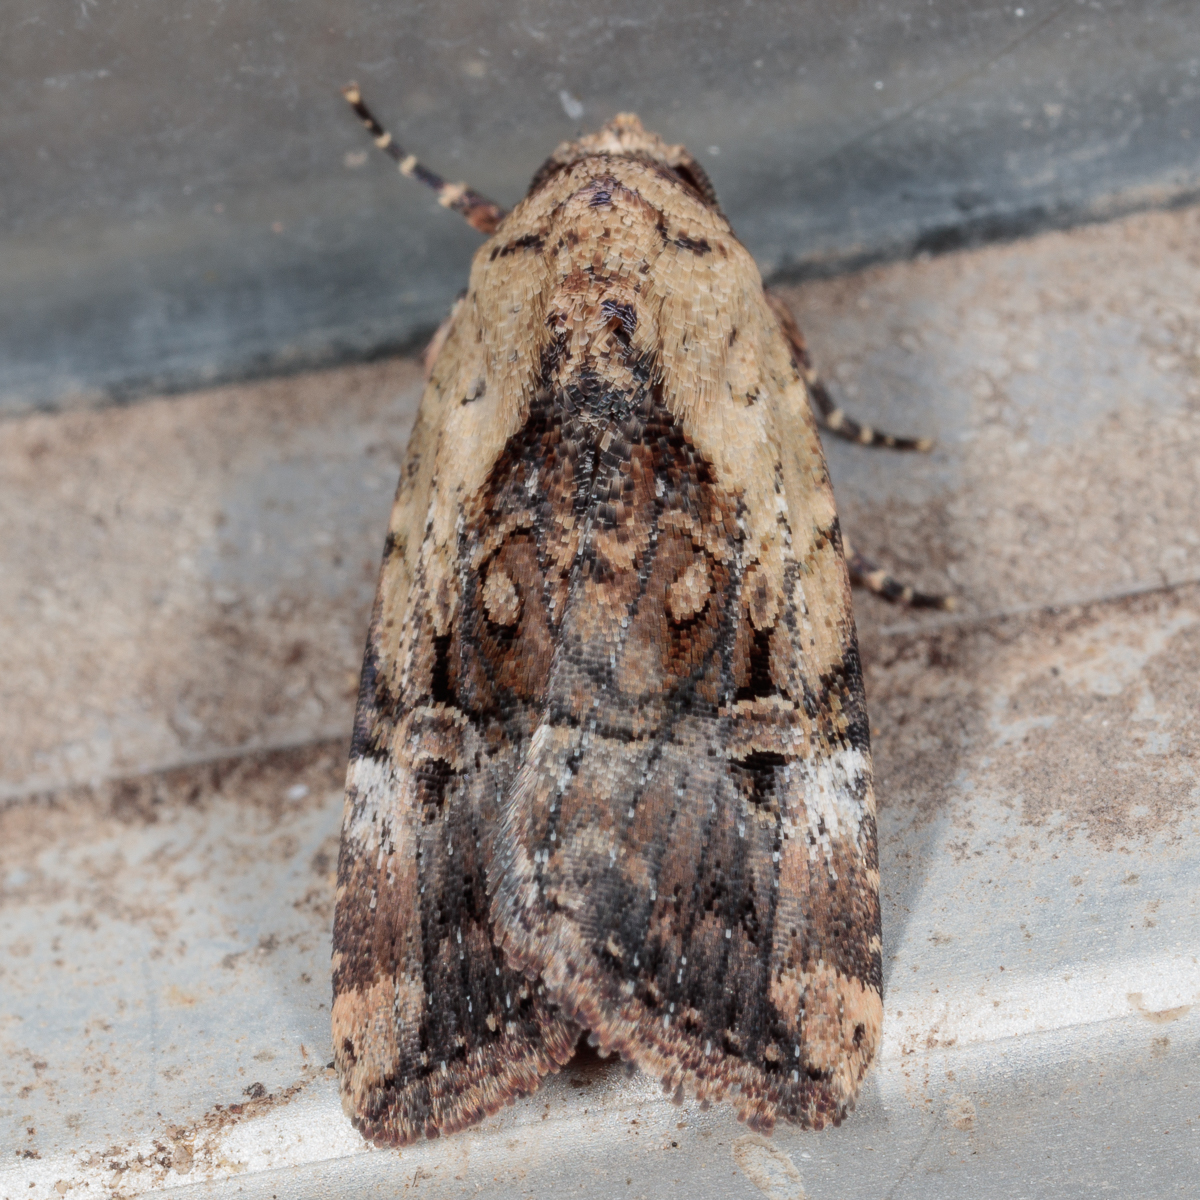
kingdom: Animalia
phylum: Arthropoda
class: Insecta
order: Lepidoptera
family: Noctuidae
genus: Elaphria
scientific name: Elaphria chalcedonia
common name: Chalcedony midget
